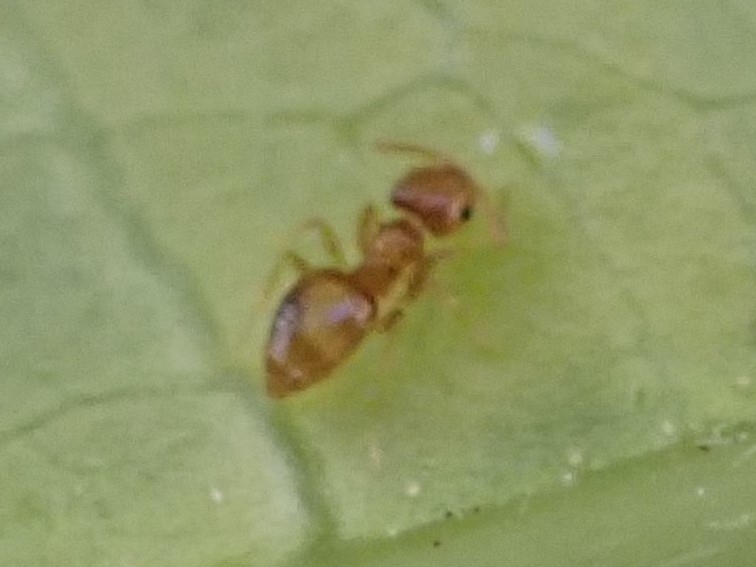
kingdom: Animalia
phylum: Arthropoda
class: Insecta
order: Hymenoptera
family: Formicidae
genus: Brachymyrmex
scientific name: Brachymyrmex
